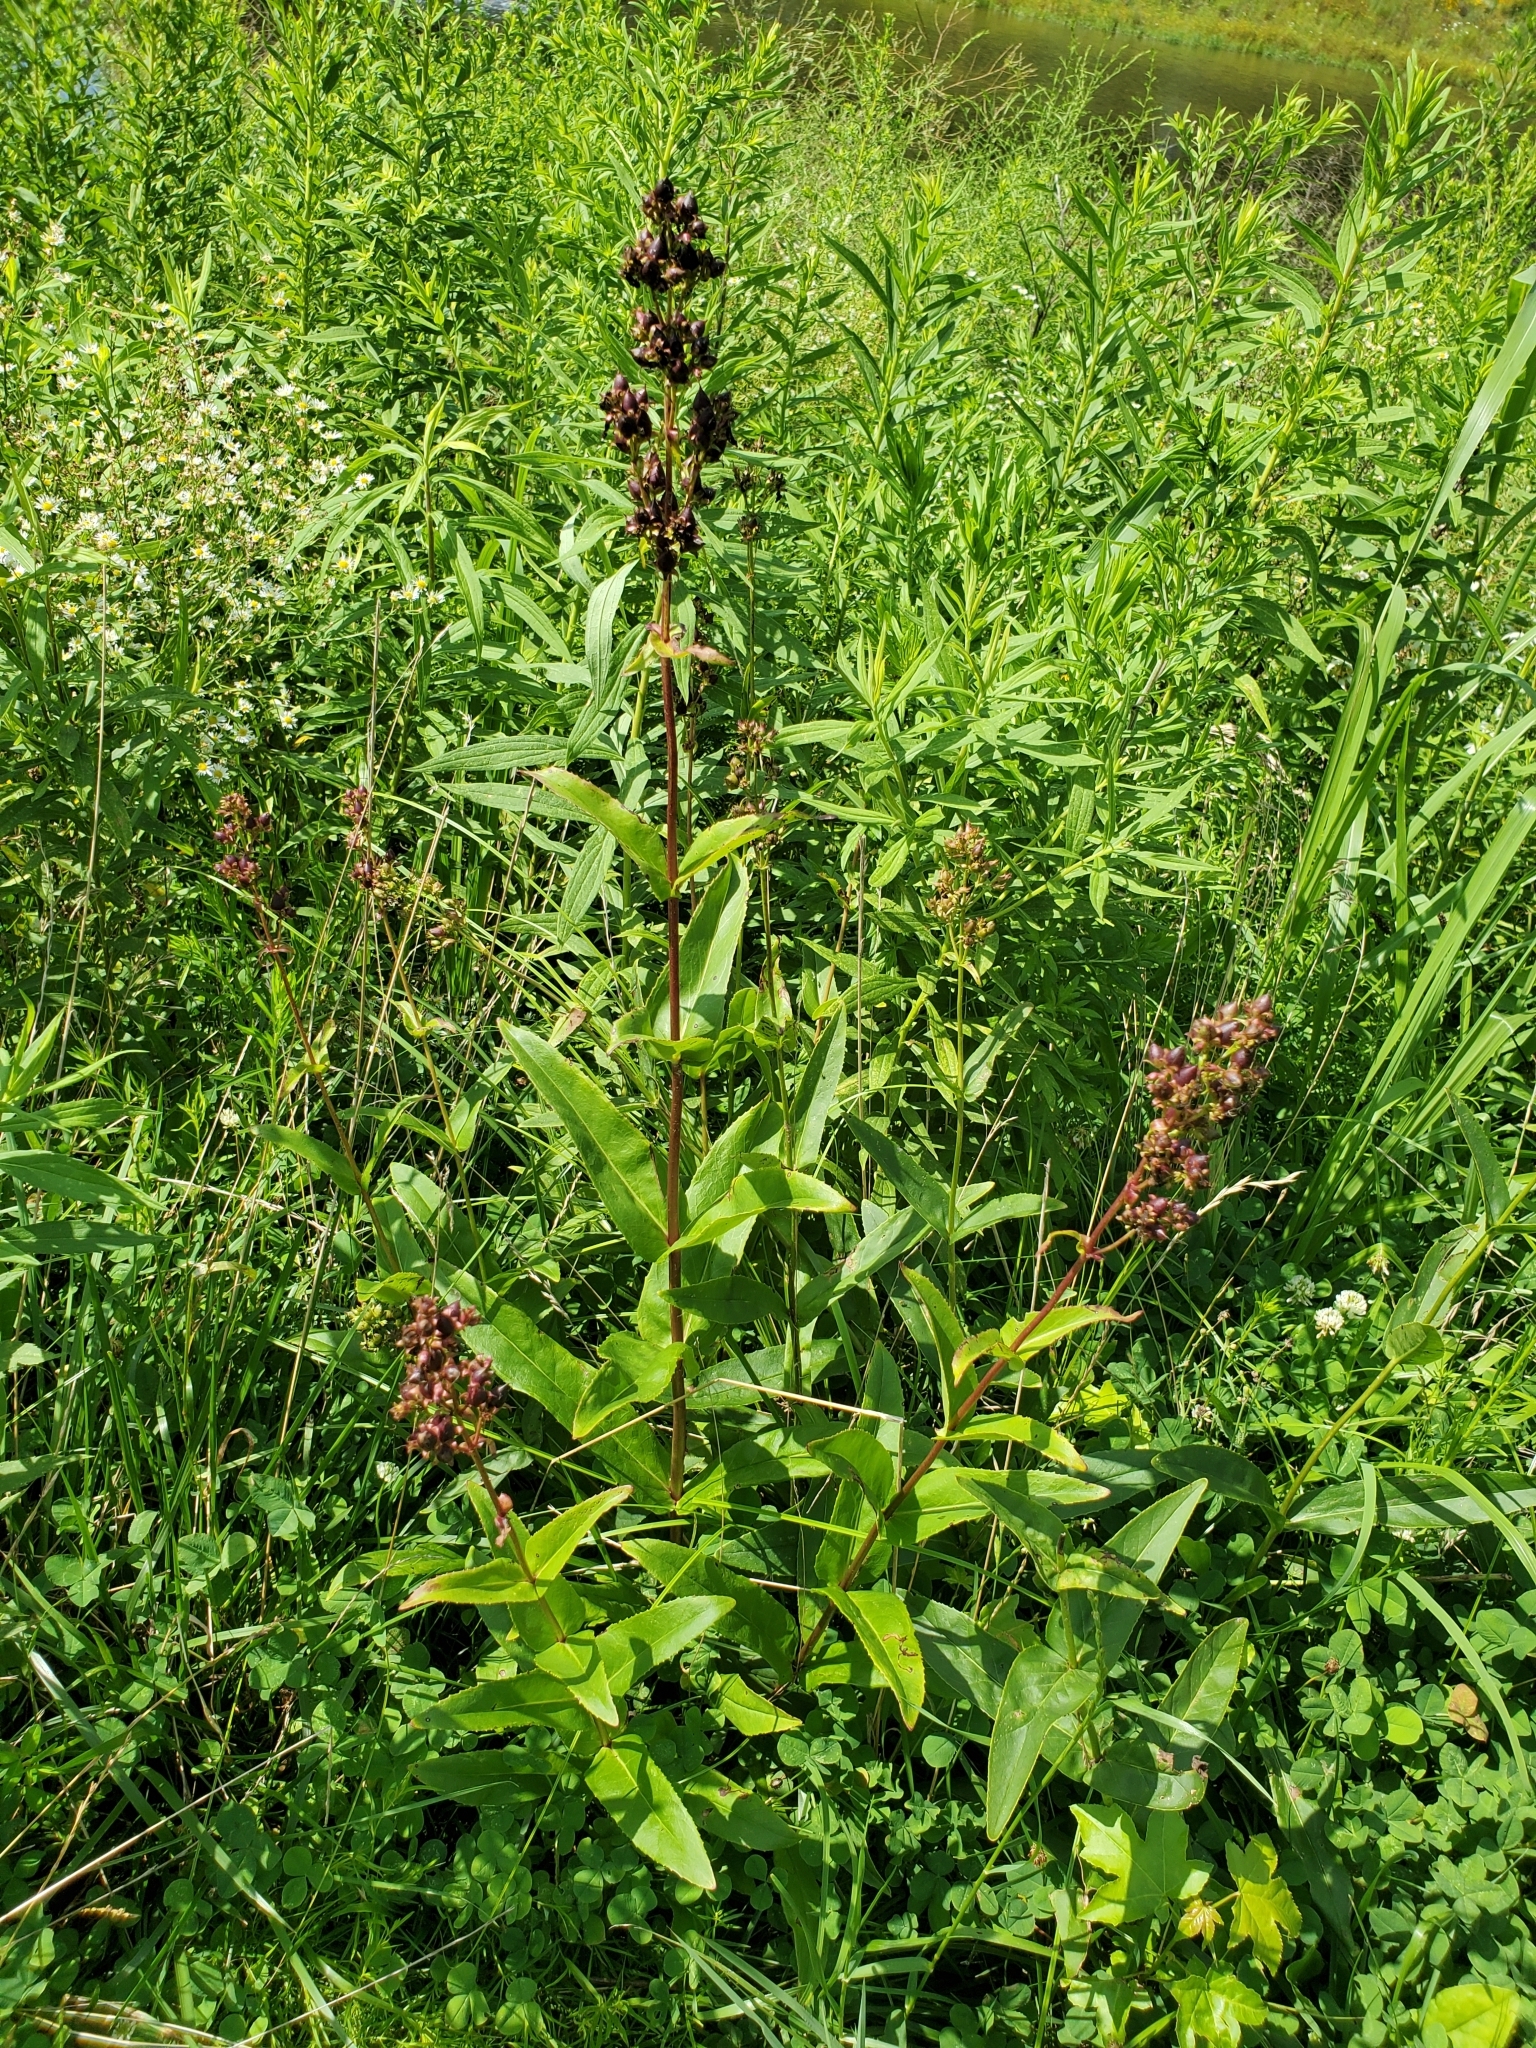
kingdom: Plantae
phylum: Tracheophyta
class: Magnoliopsida
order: Lamiales
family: Plantaginaceae
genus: Penstemon
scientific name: Penstemon digitalis
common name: Foxglove beardtongue
